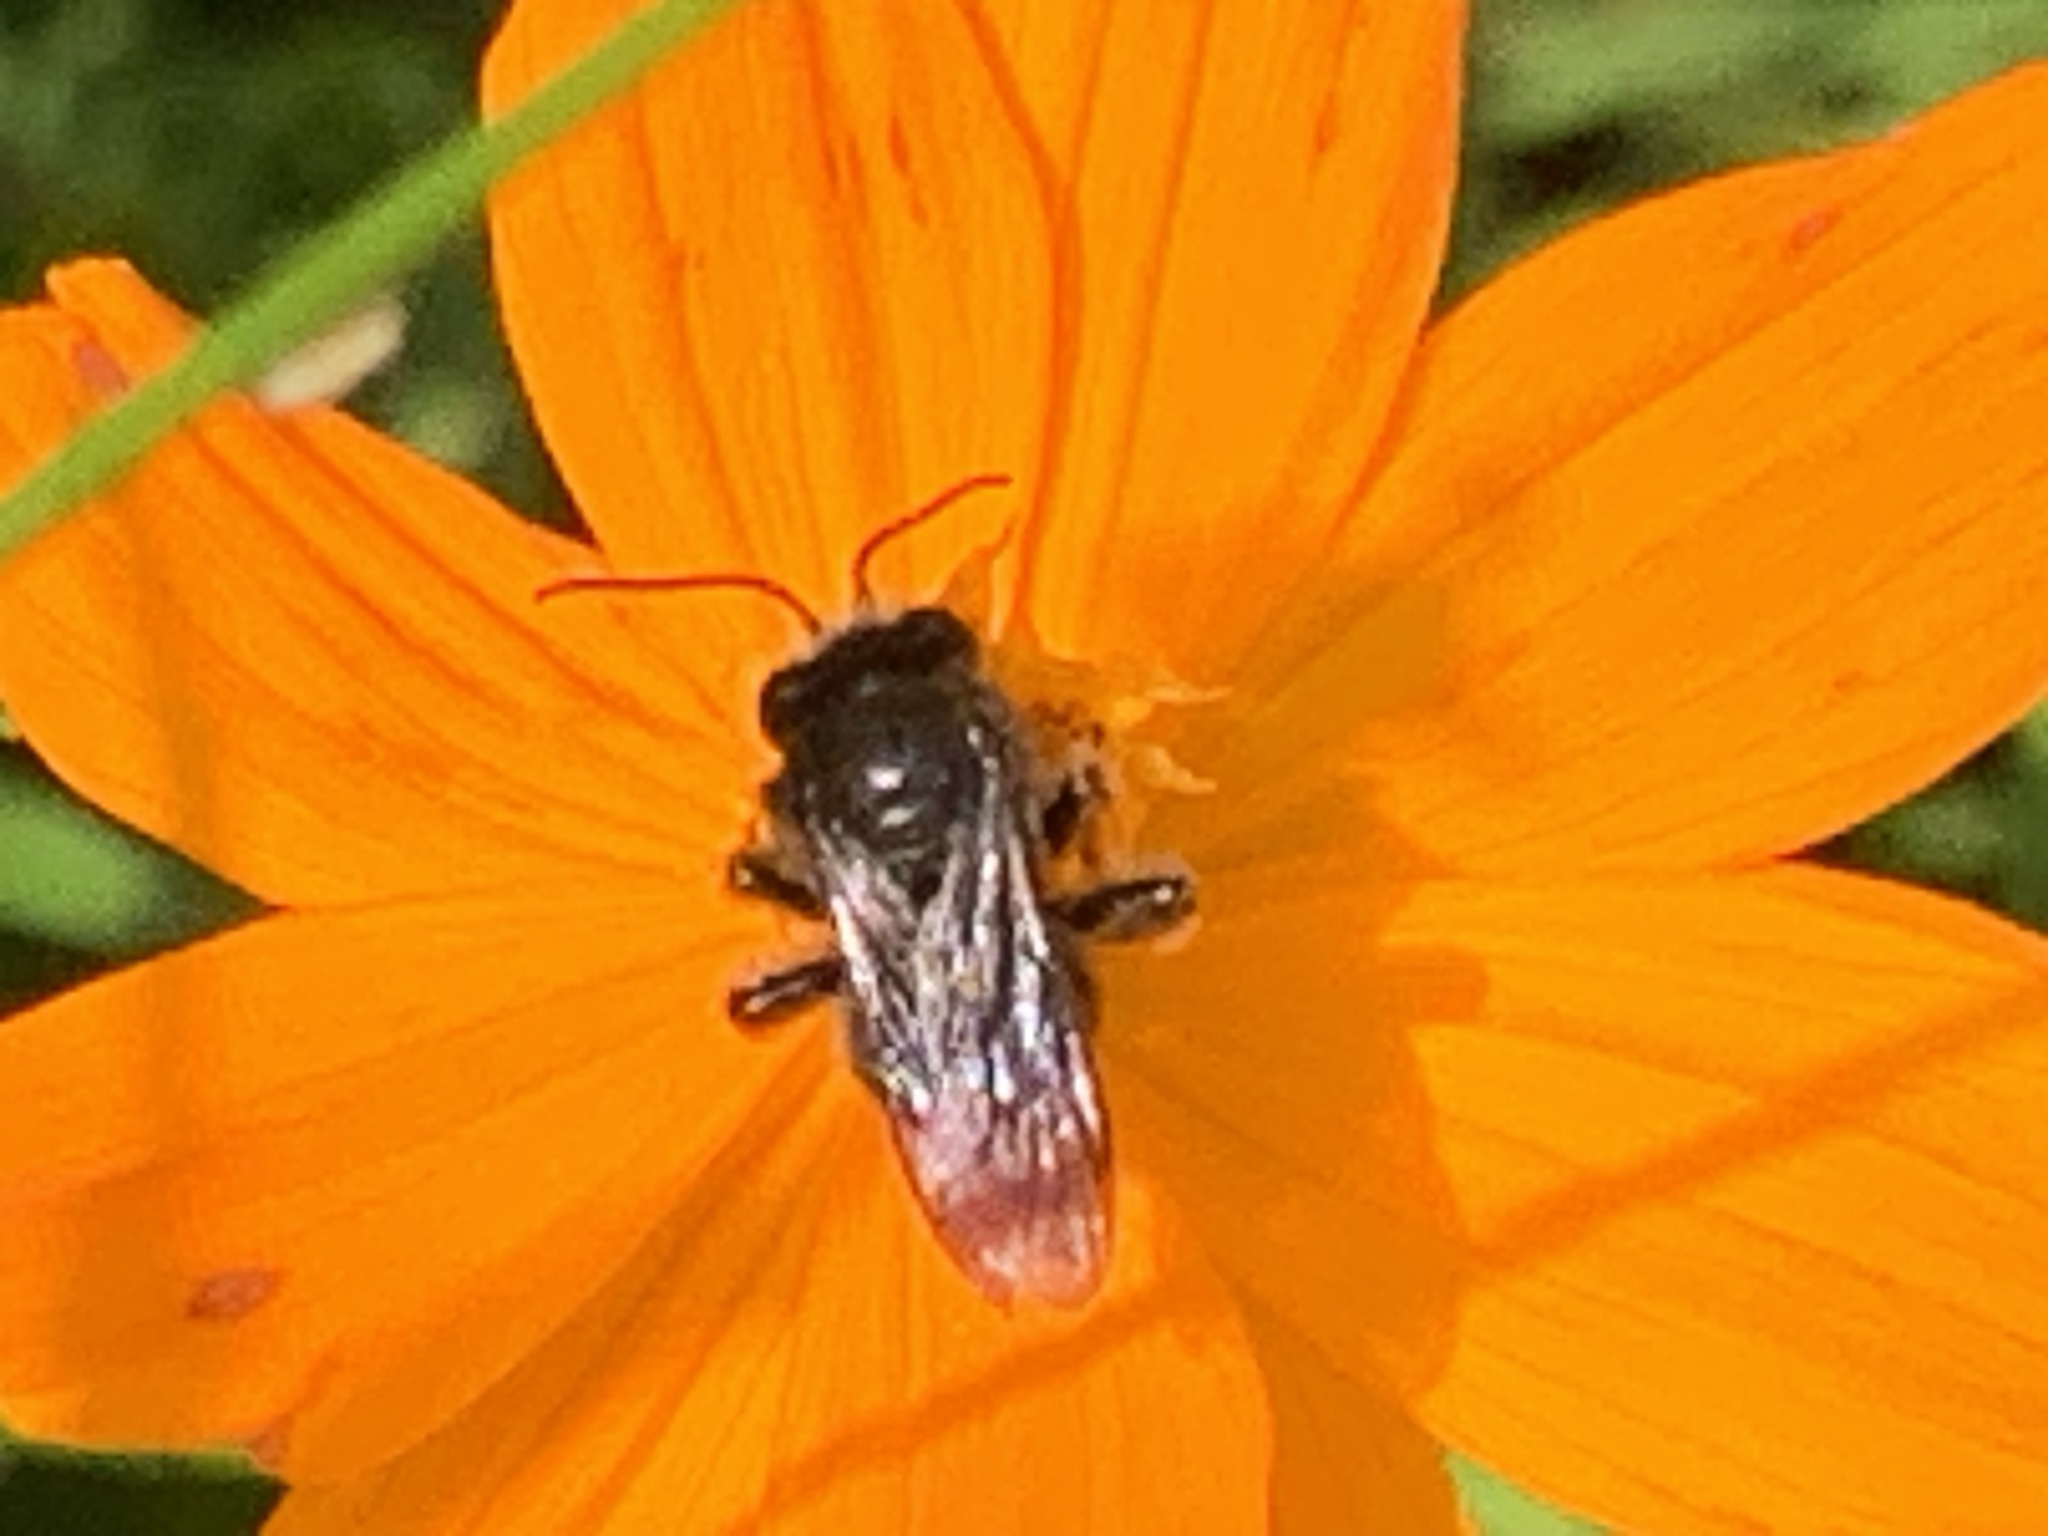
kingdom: Animalia
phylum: Arthropoda
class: Insecta
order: Hymenoptera
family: Apidae
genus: Melissodes
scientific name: Melissodes bimaculatus
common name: Two-spotted long-horned bee
